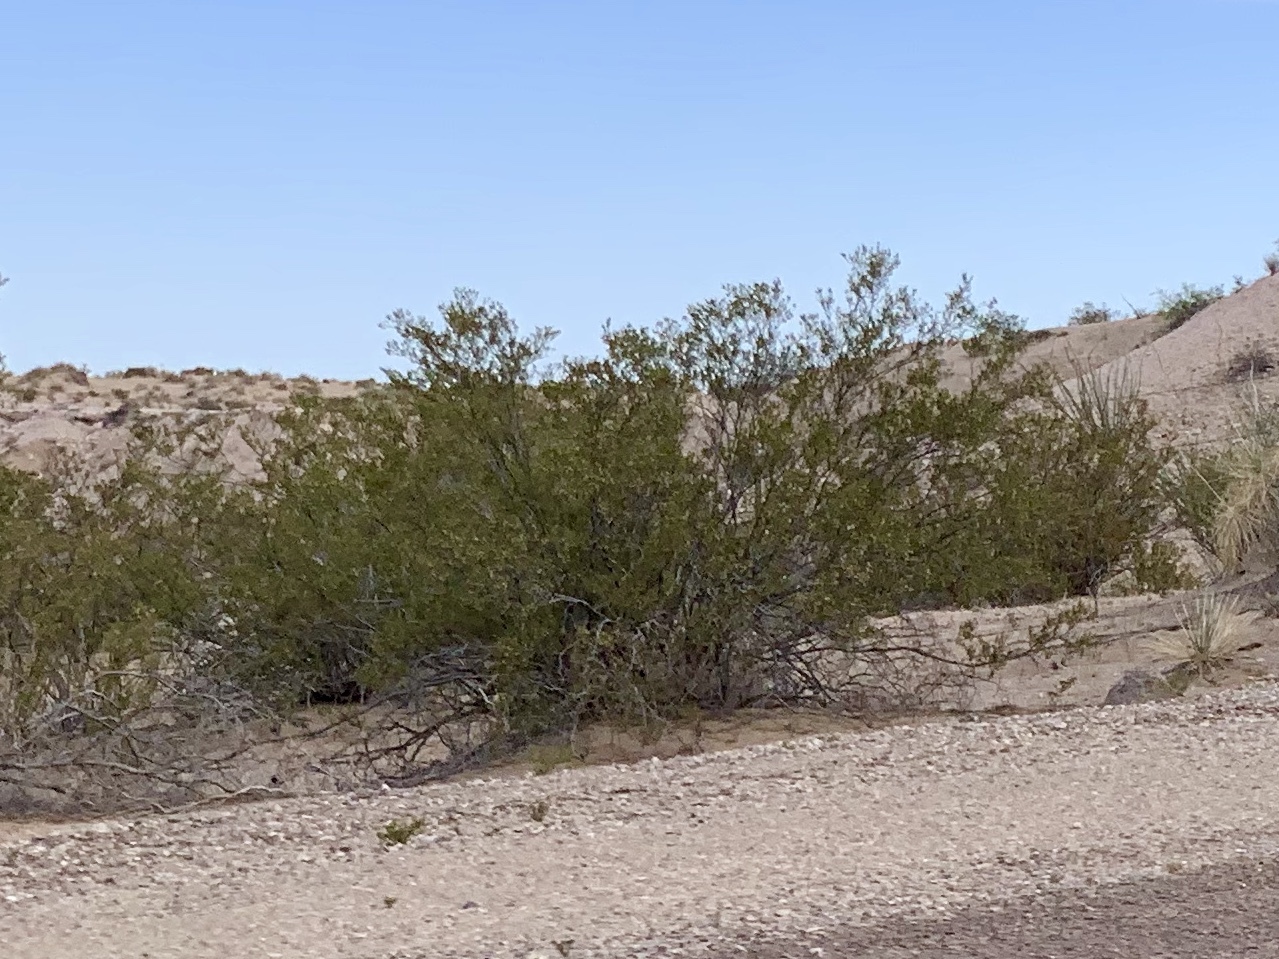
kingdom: Plantae
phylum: Tracheophyta
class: Magnoliopsida
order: Zygophyllales
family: Zygophyllaceae
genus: Larrea
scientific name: Larrea tridentata
